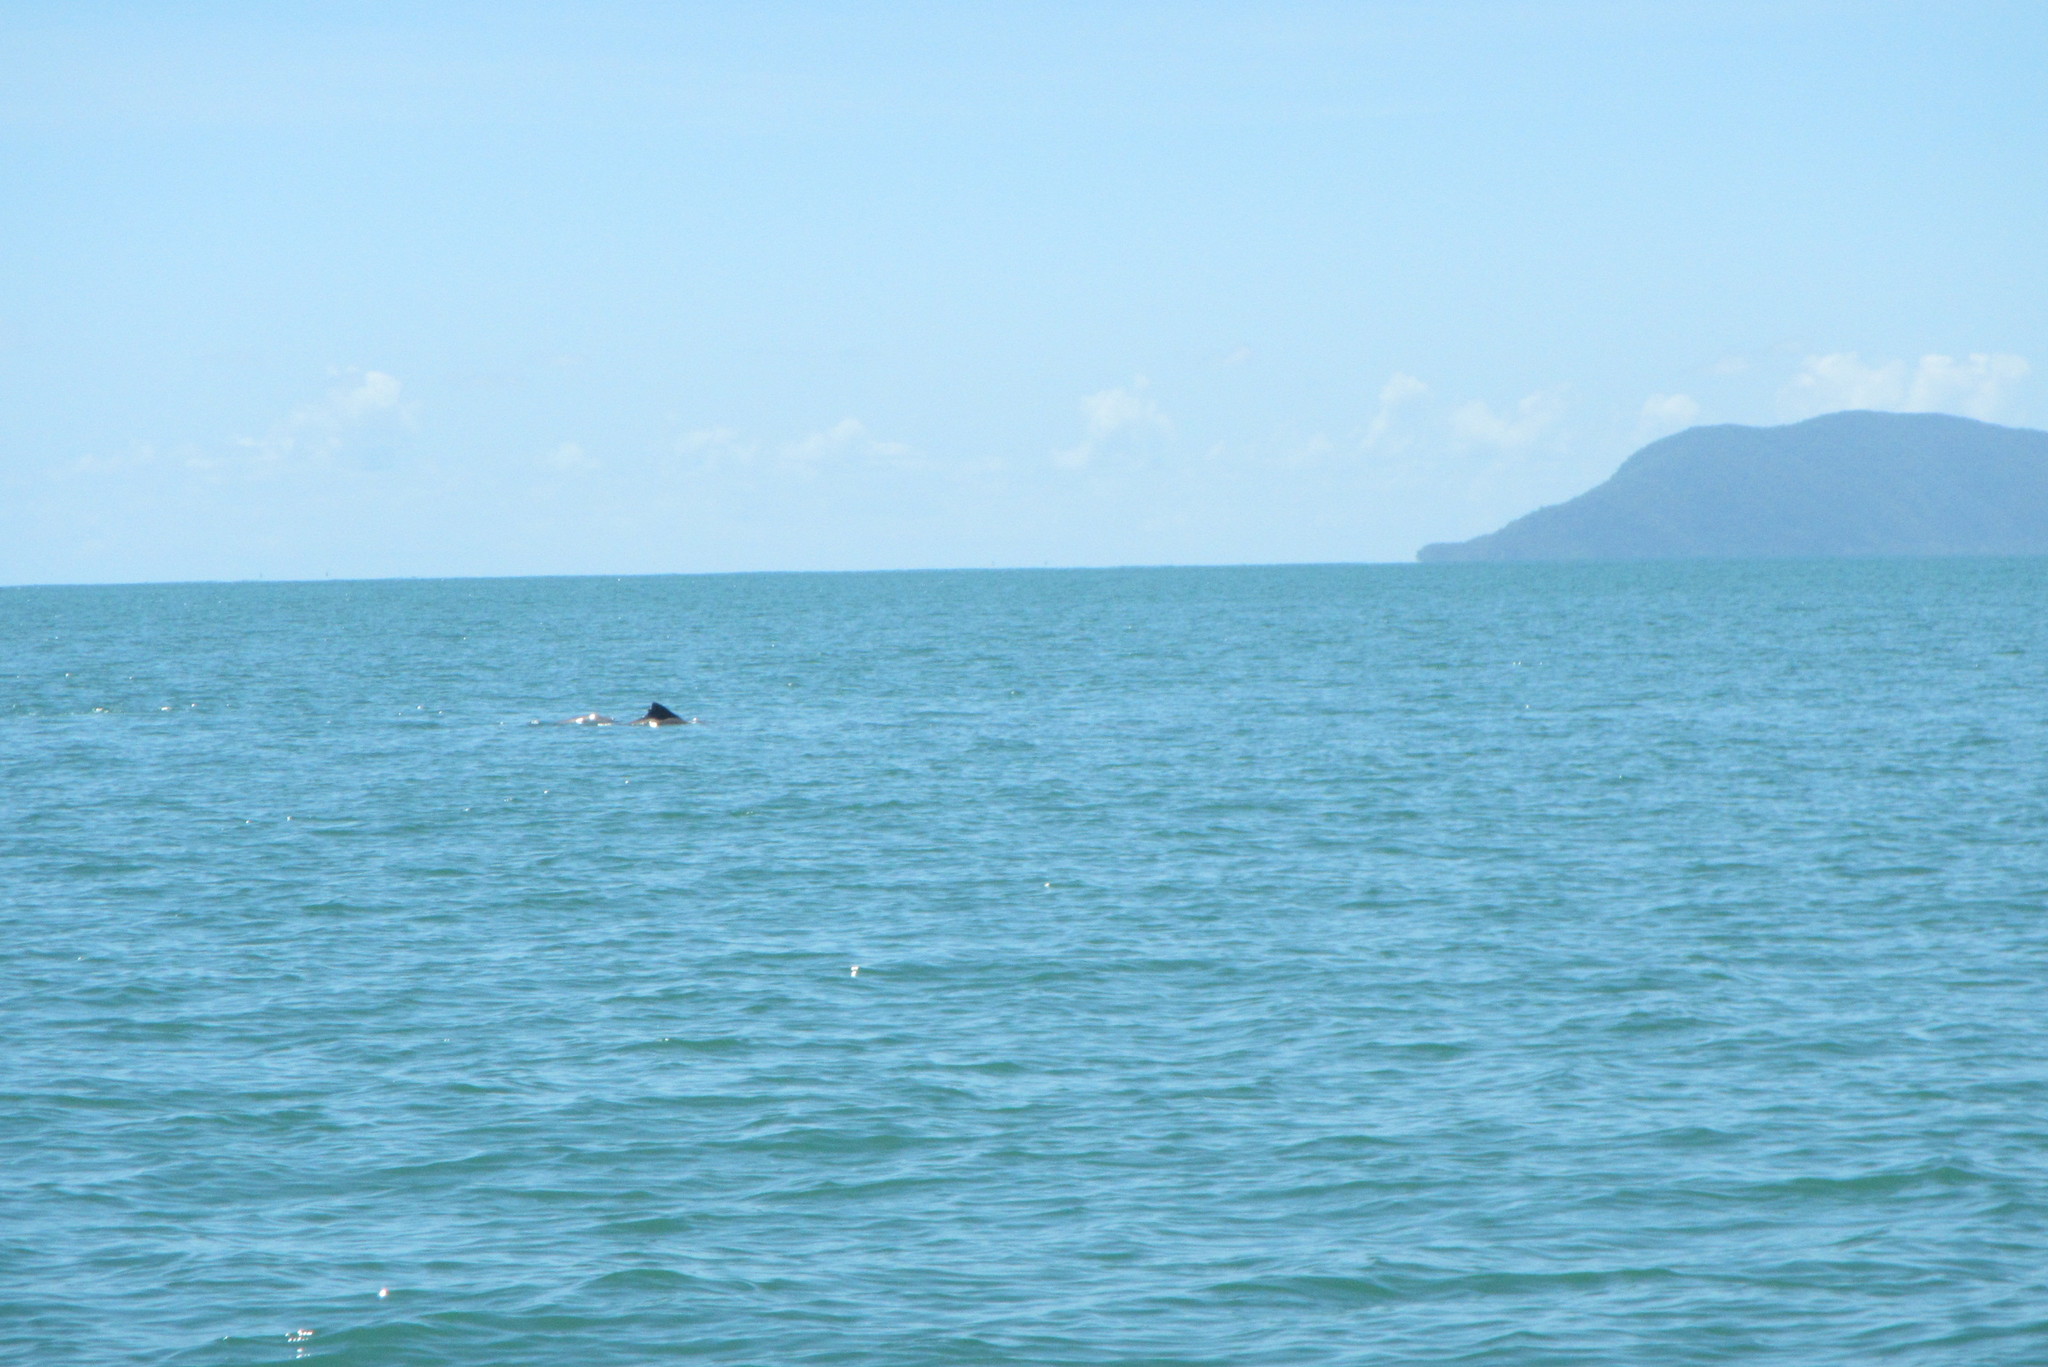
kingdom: Animalia
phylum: Chordata
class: Mammalia
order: Cetacea
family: Delphinidae
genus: Sousa
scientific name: Sousa sahulensis
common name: Australian humpback dolphin
